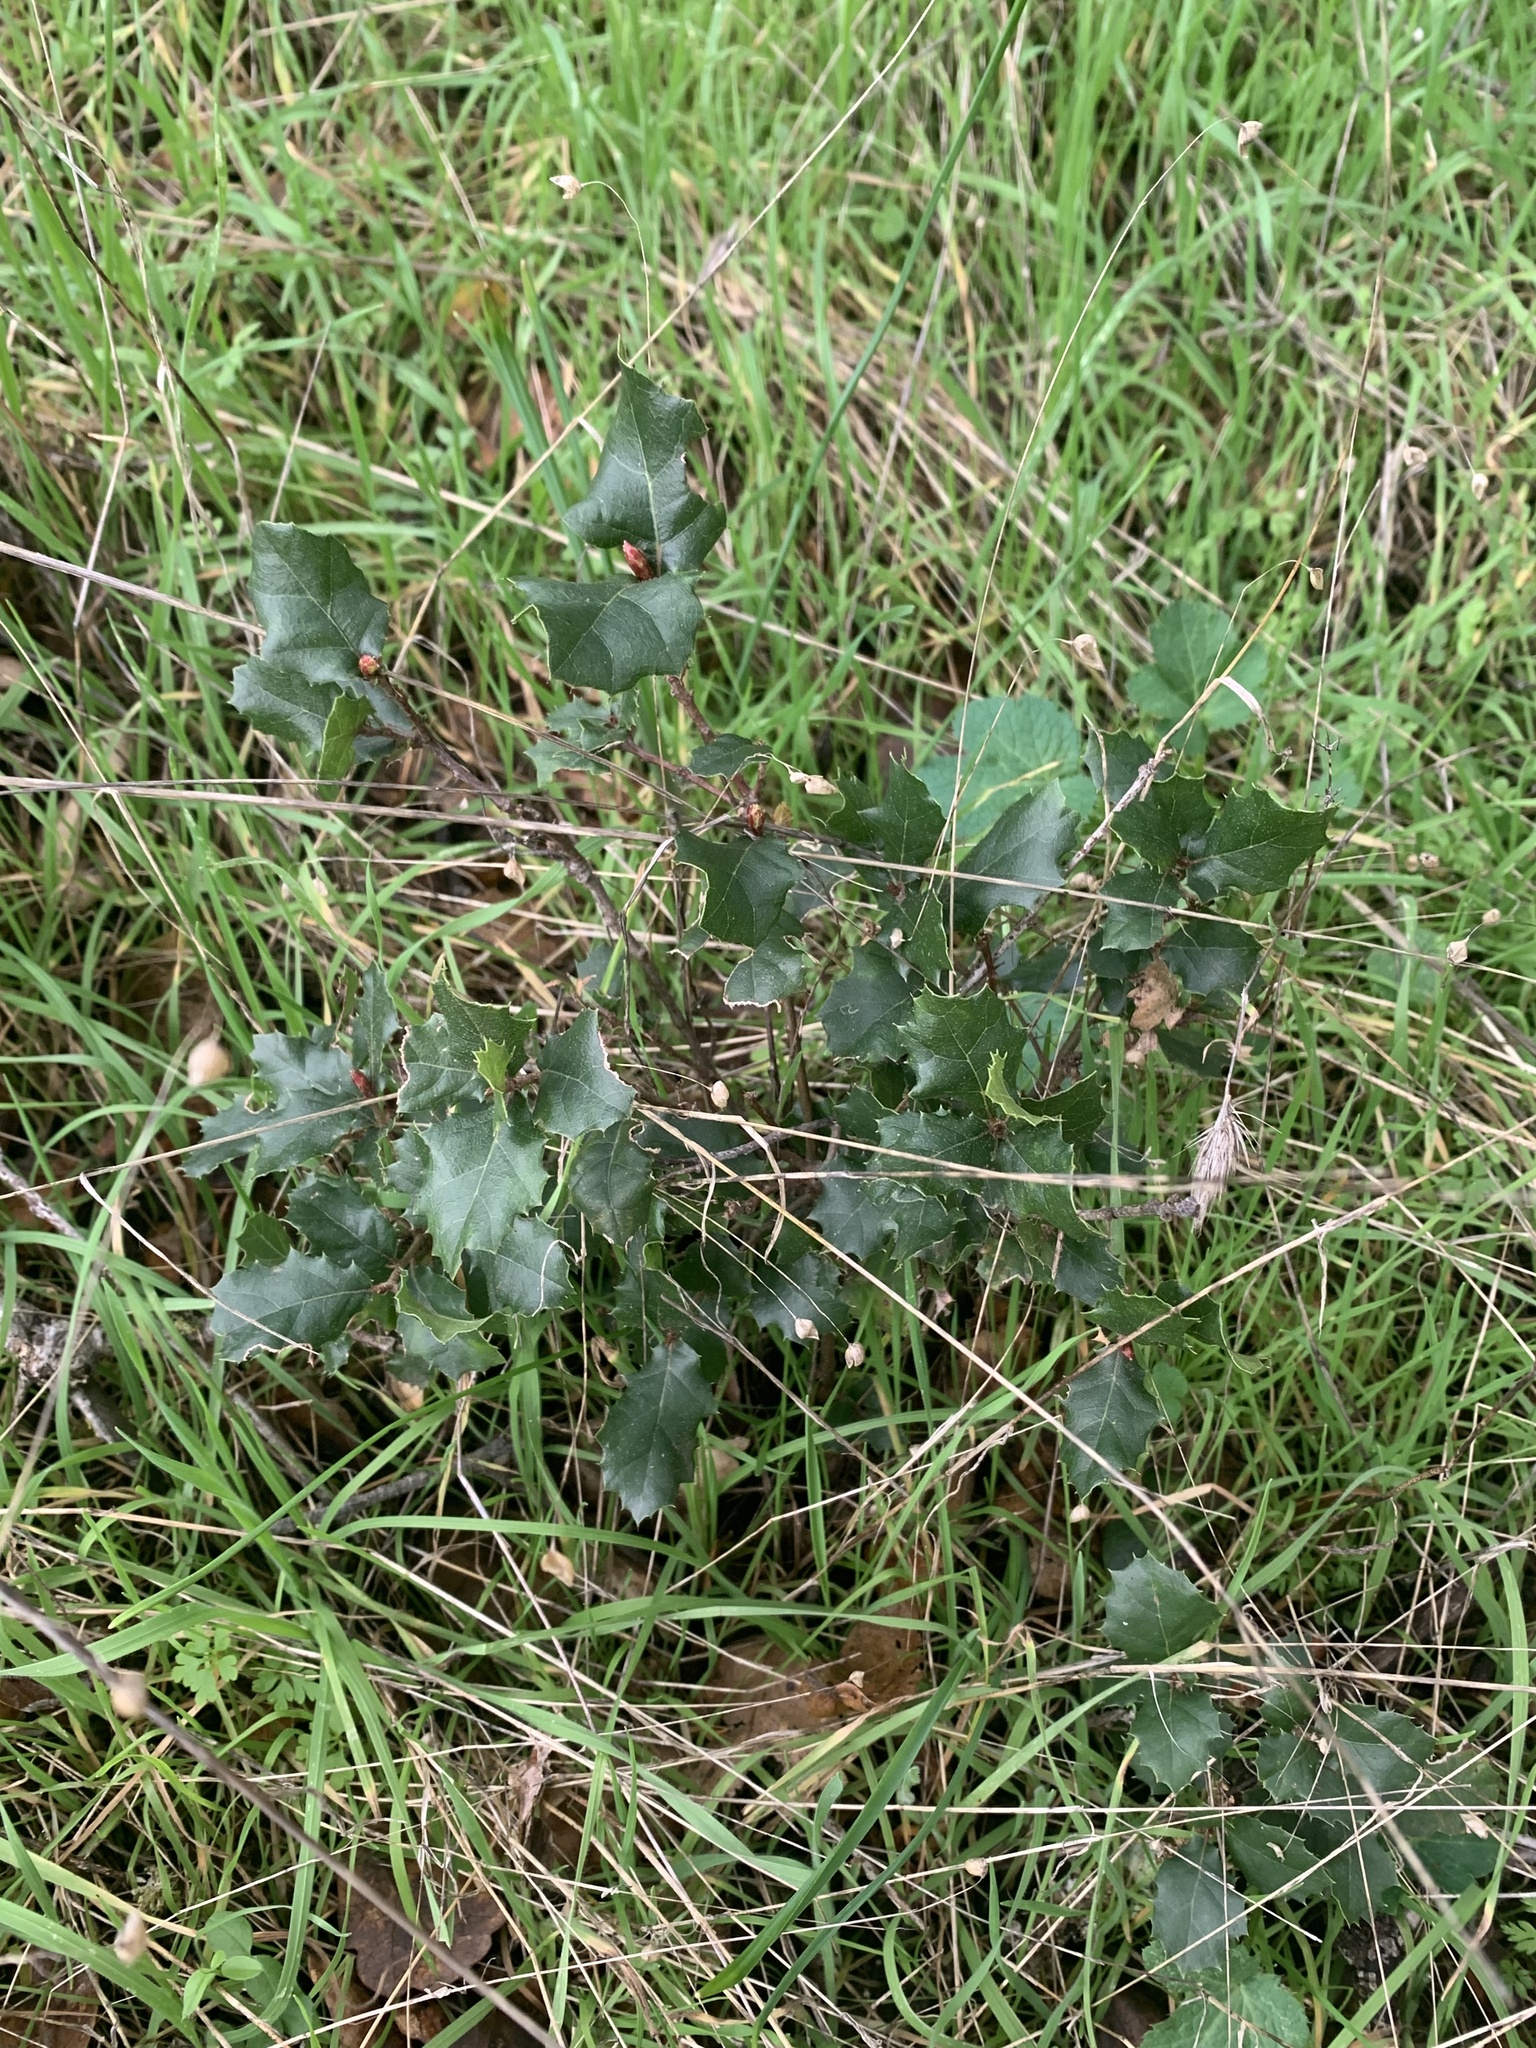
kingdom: Plantae
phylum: Tracheophyta
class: Magnoliopsida
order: Fagales
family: Fagaceae
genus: Quercus
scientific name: Quercus agrifolia
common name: California live oak
